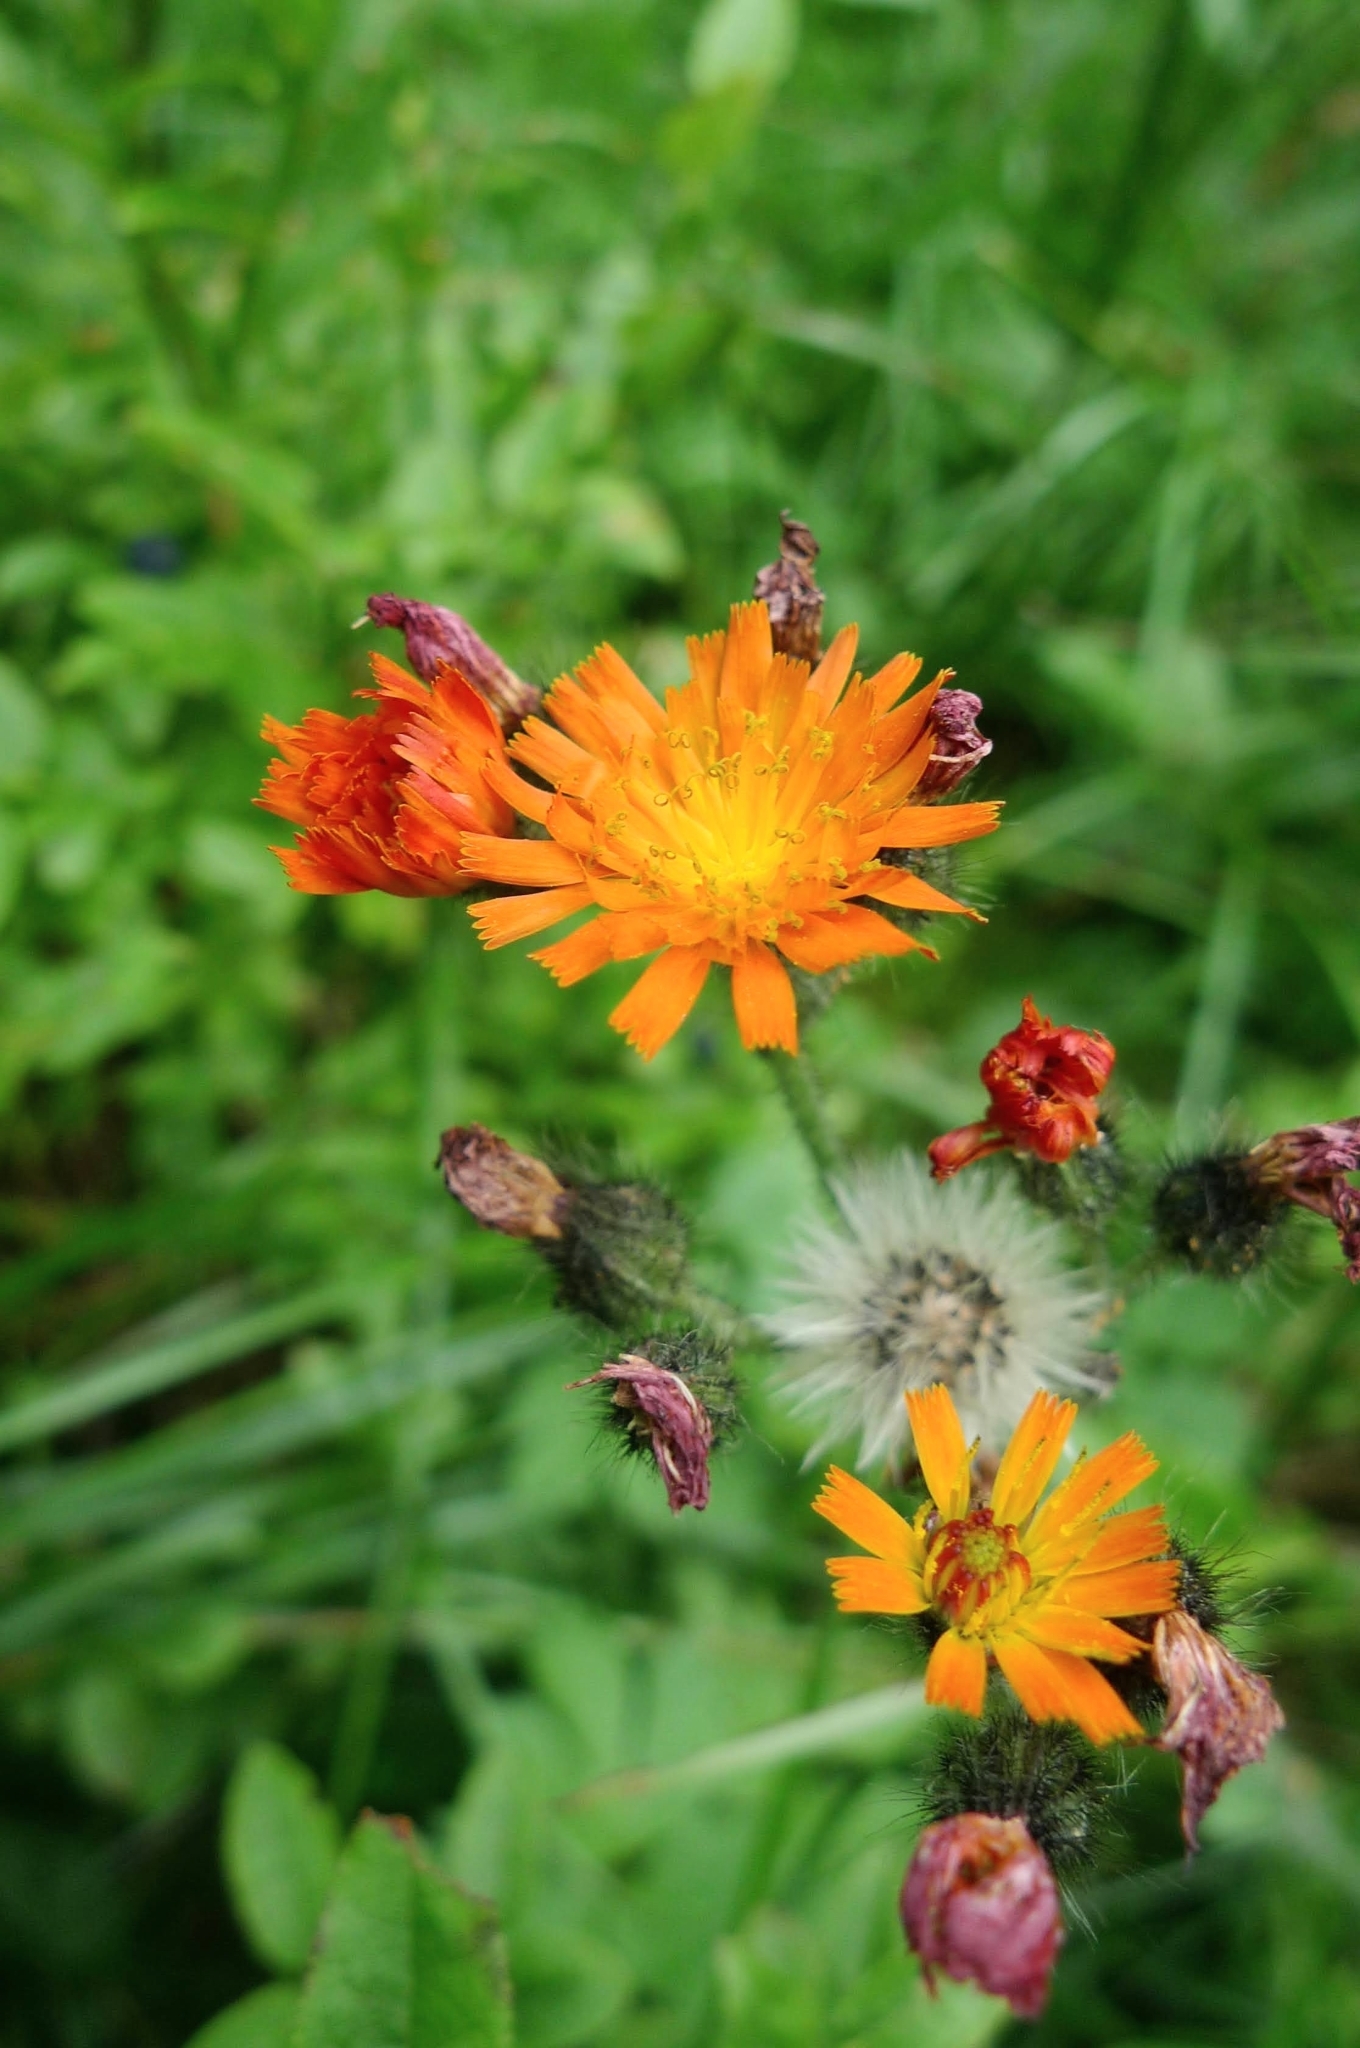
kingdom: Plantae
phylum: Tracheophyta
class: Magnoliopsida
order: Asterales
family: Asteraceae
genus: Pilosella
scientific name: Pilosella aurantiaca
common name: Fox-and-cubs
